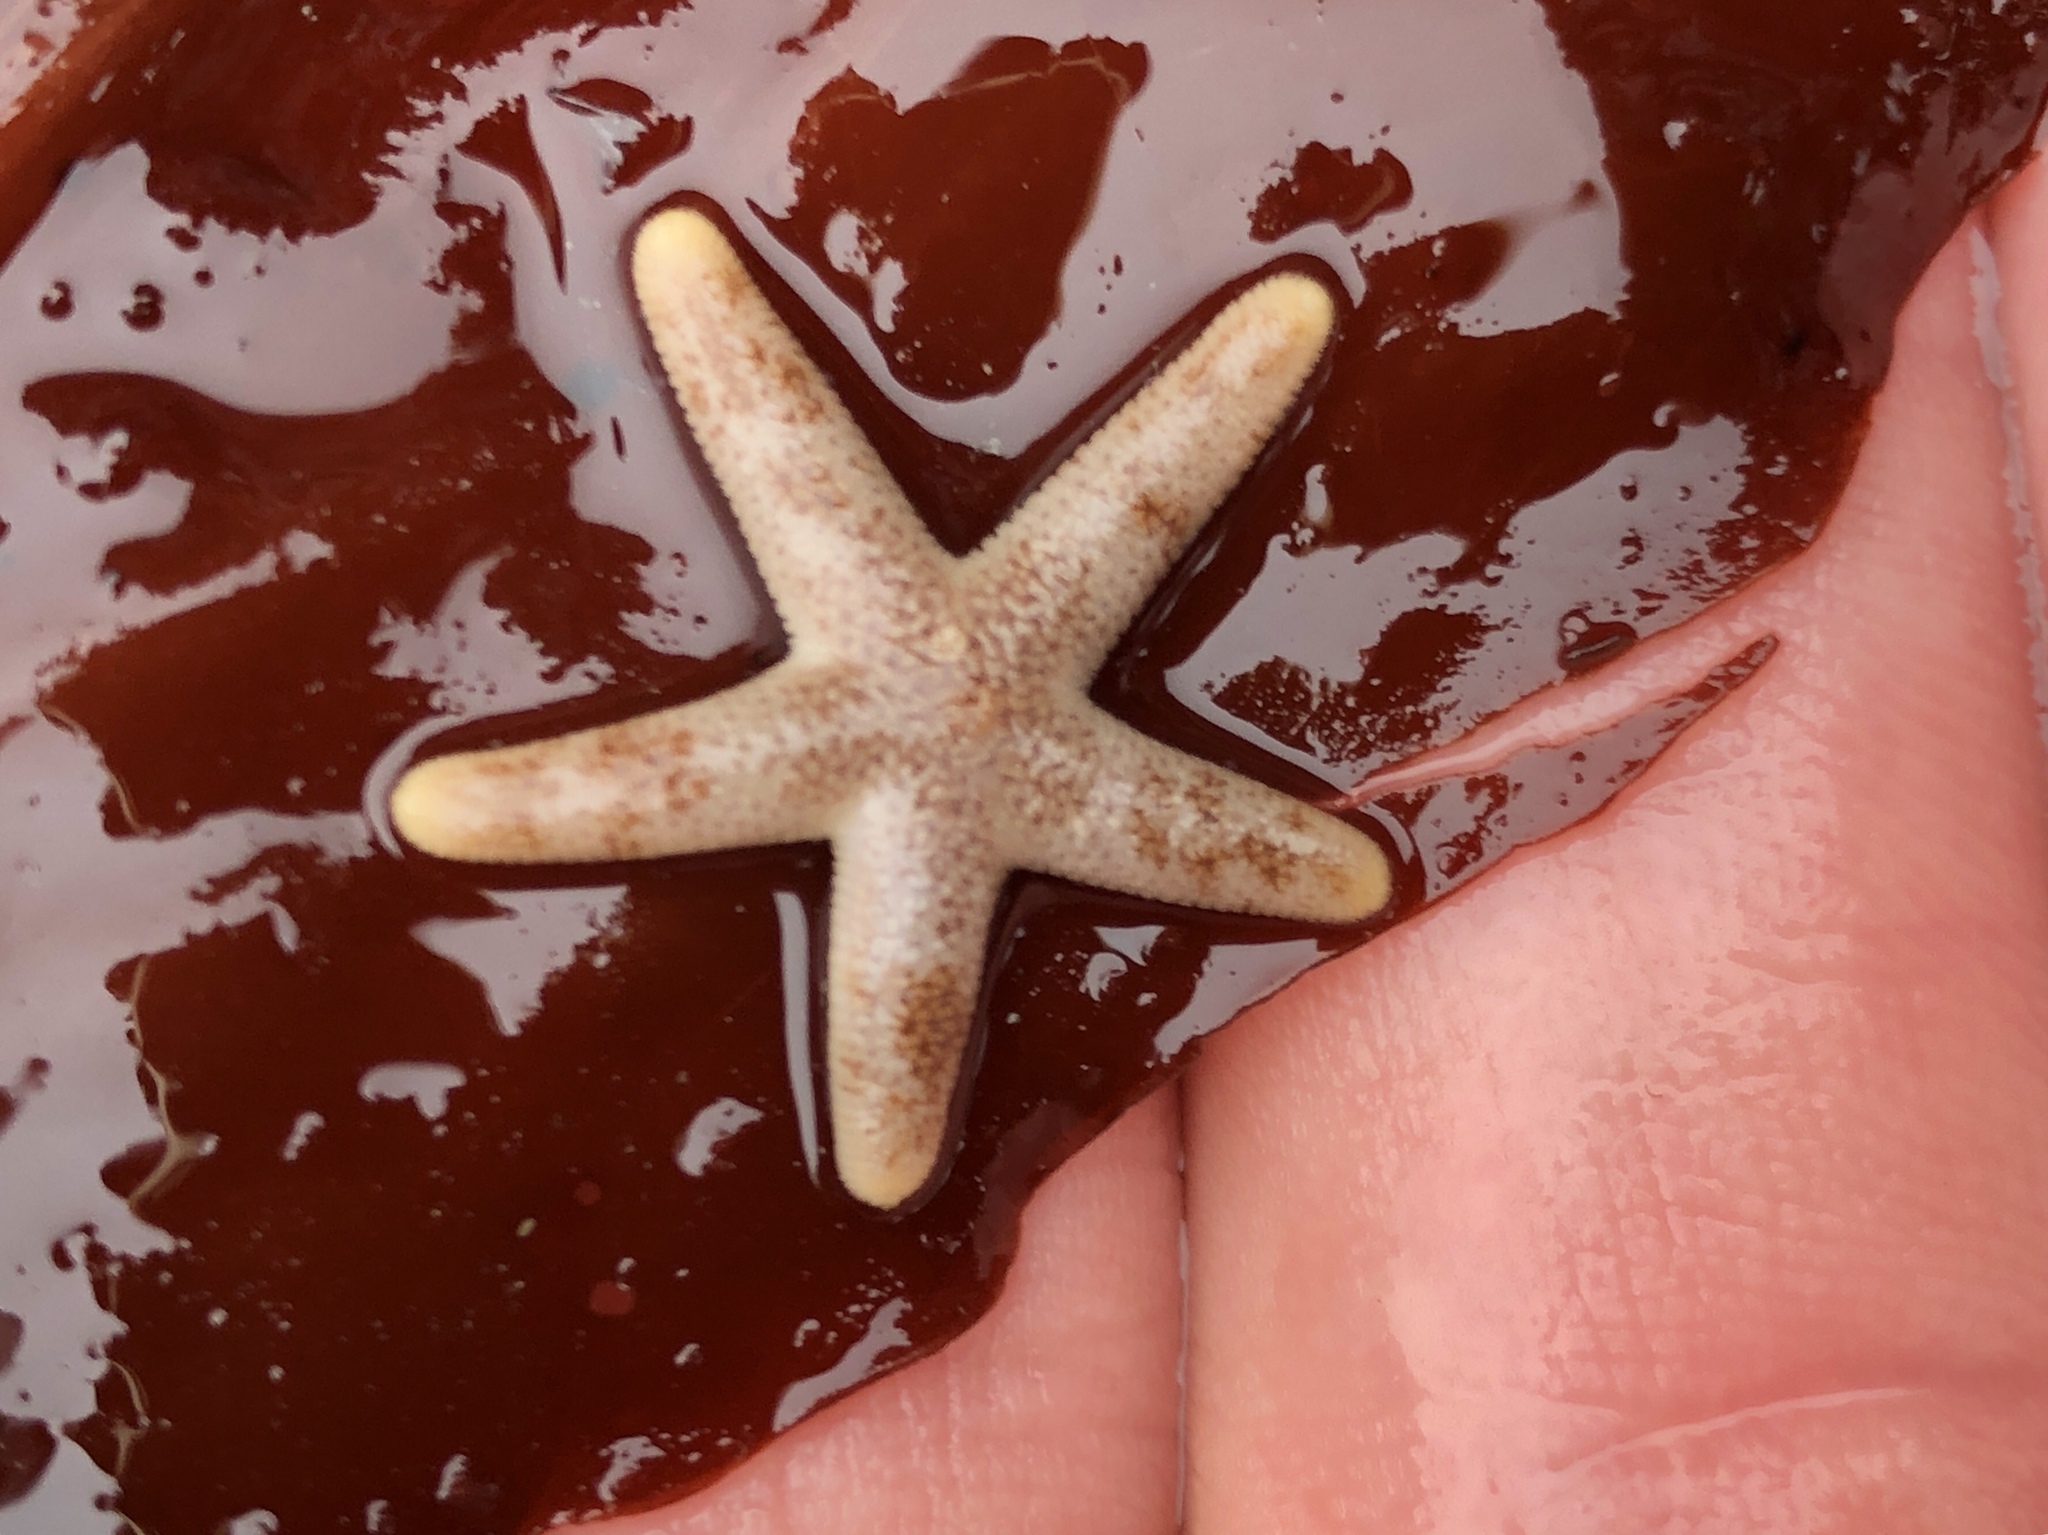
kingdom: Animalia
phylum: Echinodermata
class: Asteroidea
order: Spinulosida
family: Echinasteridae
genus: Henricia
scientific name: Henricia
